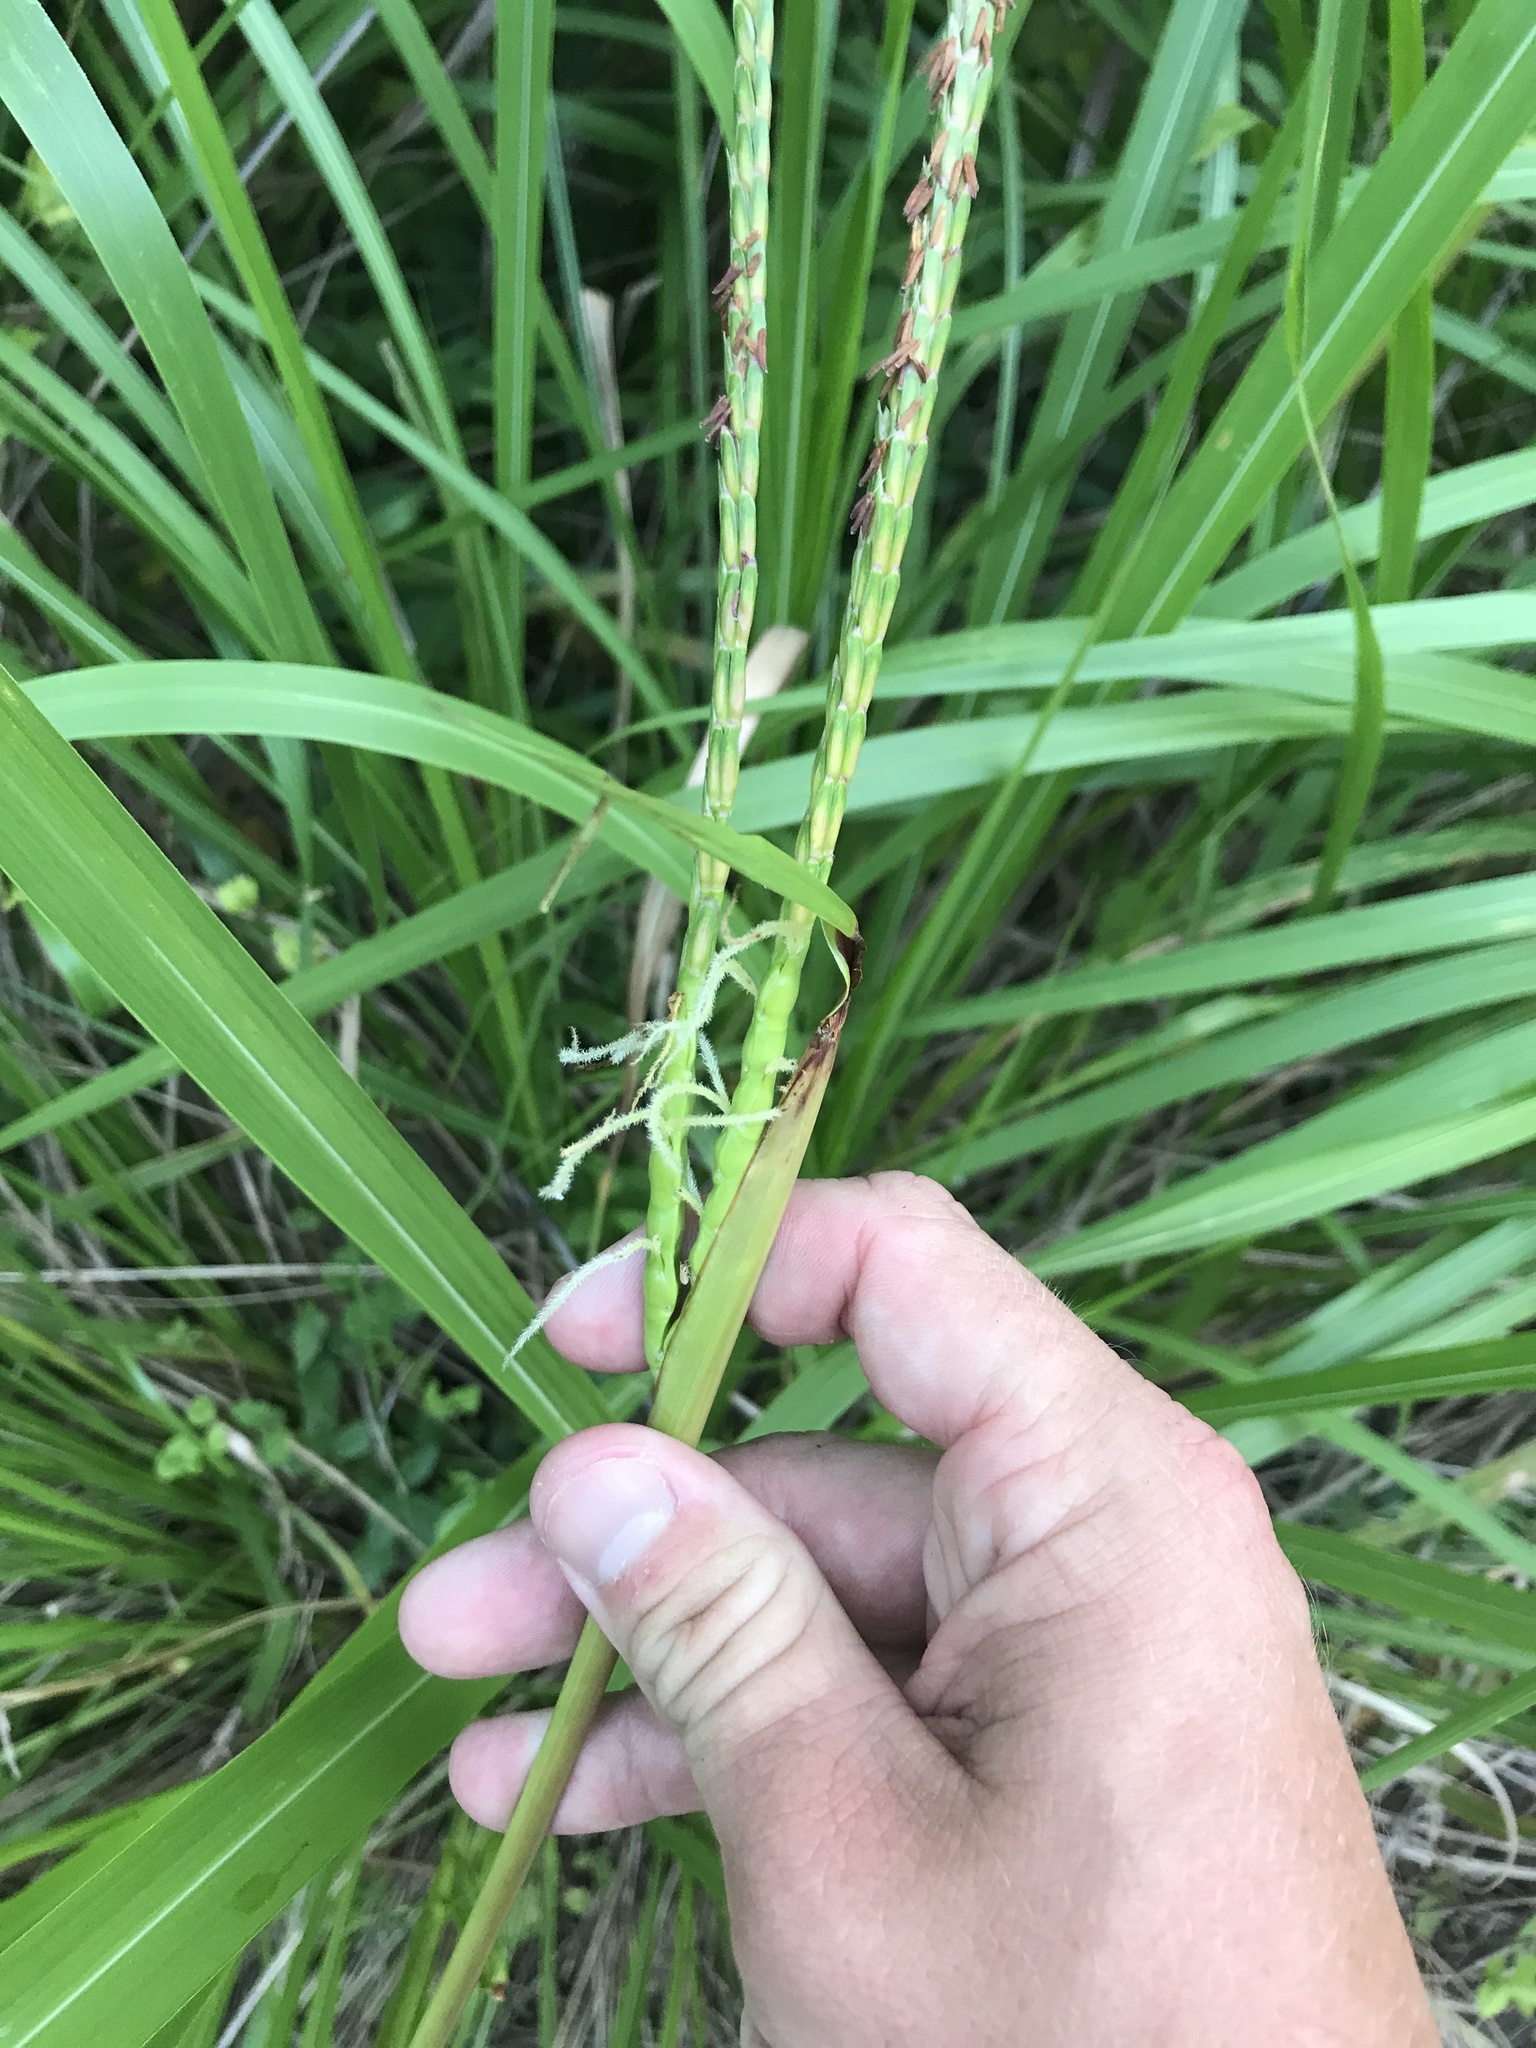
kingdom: Plantae
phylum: Tracheophyta
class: Liliopsida
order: Poales
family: Poaceae
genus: Tripsacum
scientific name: Tripsacum dactyloides
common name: Buffalo-grass
